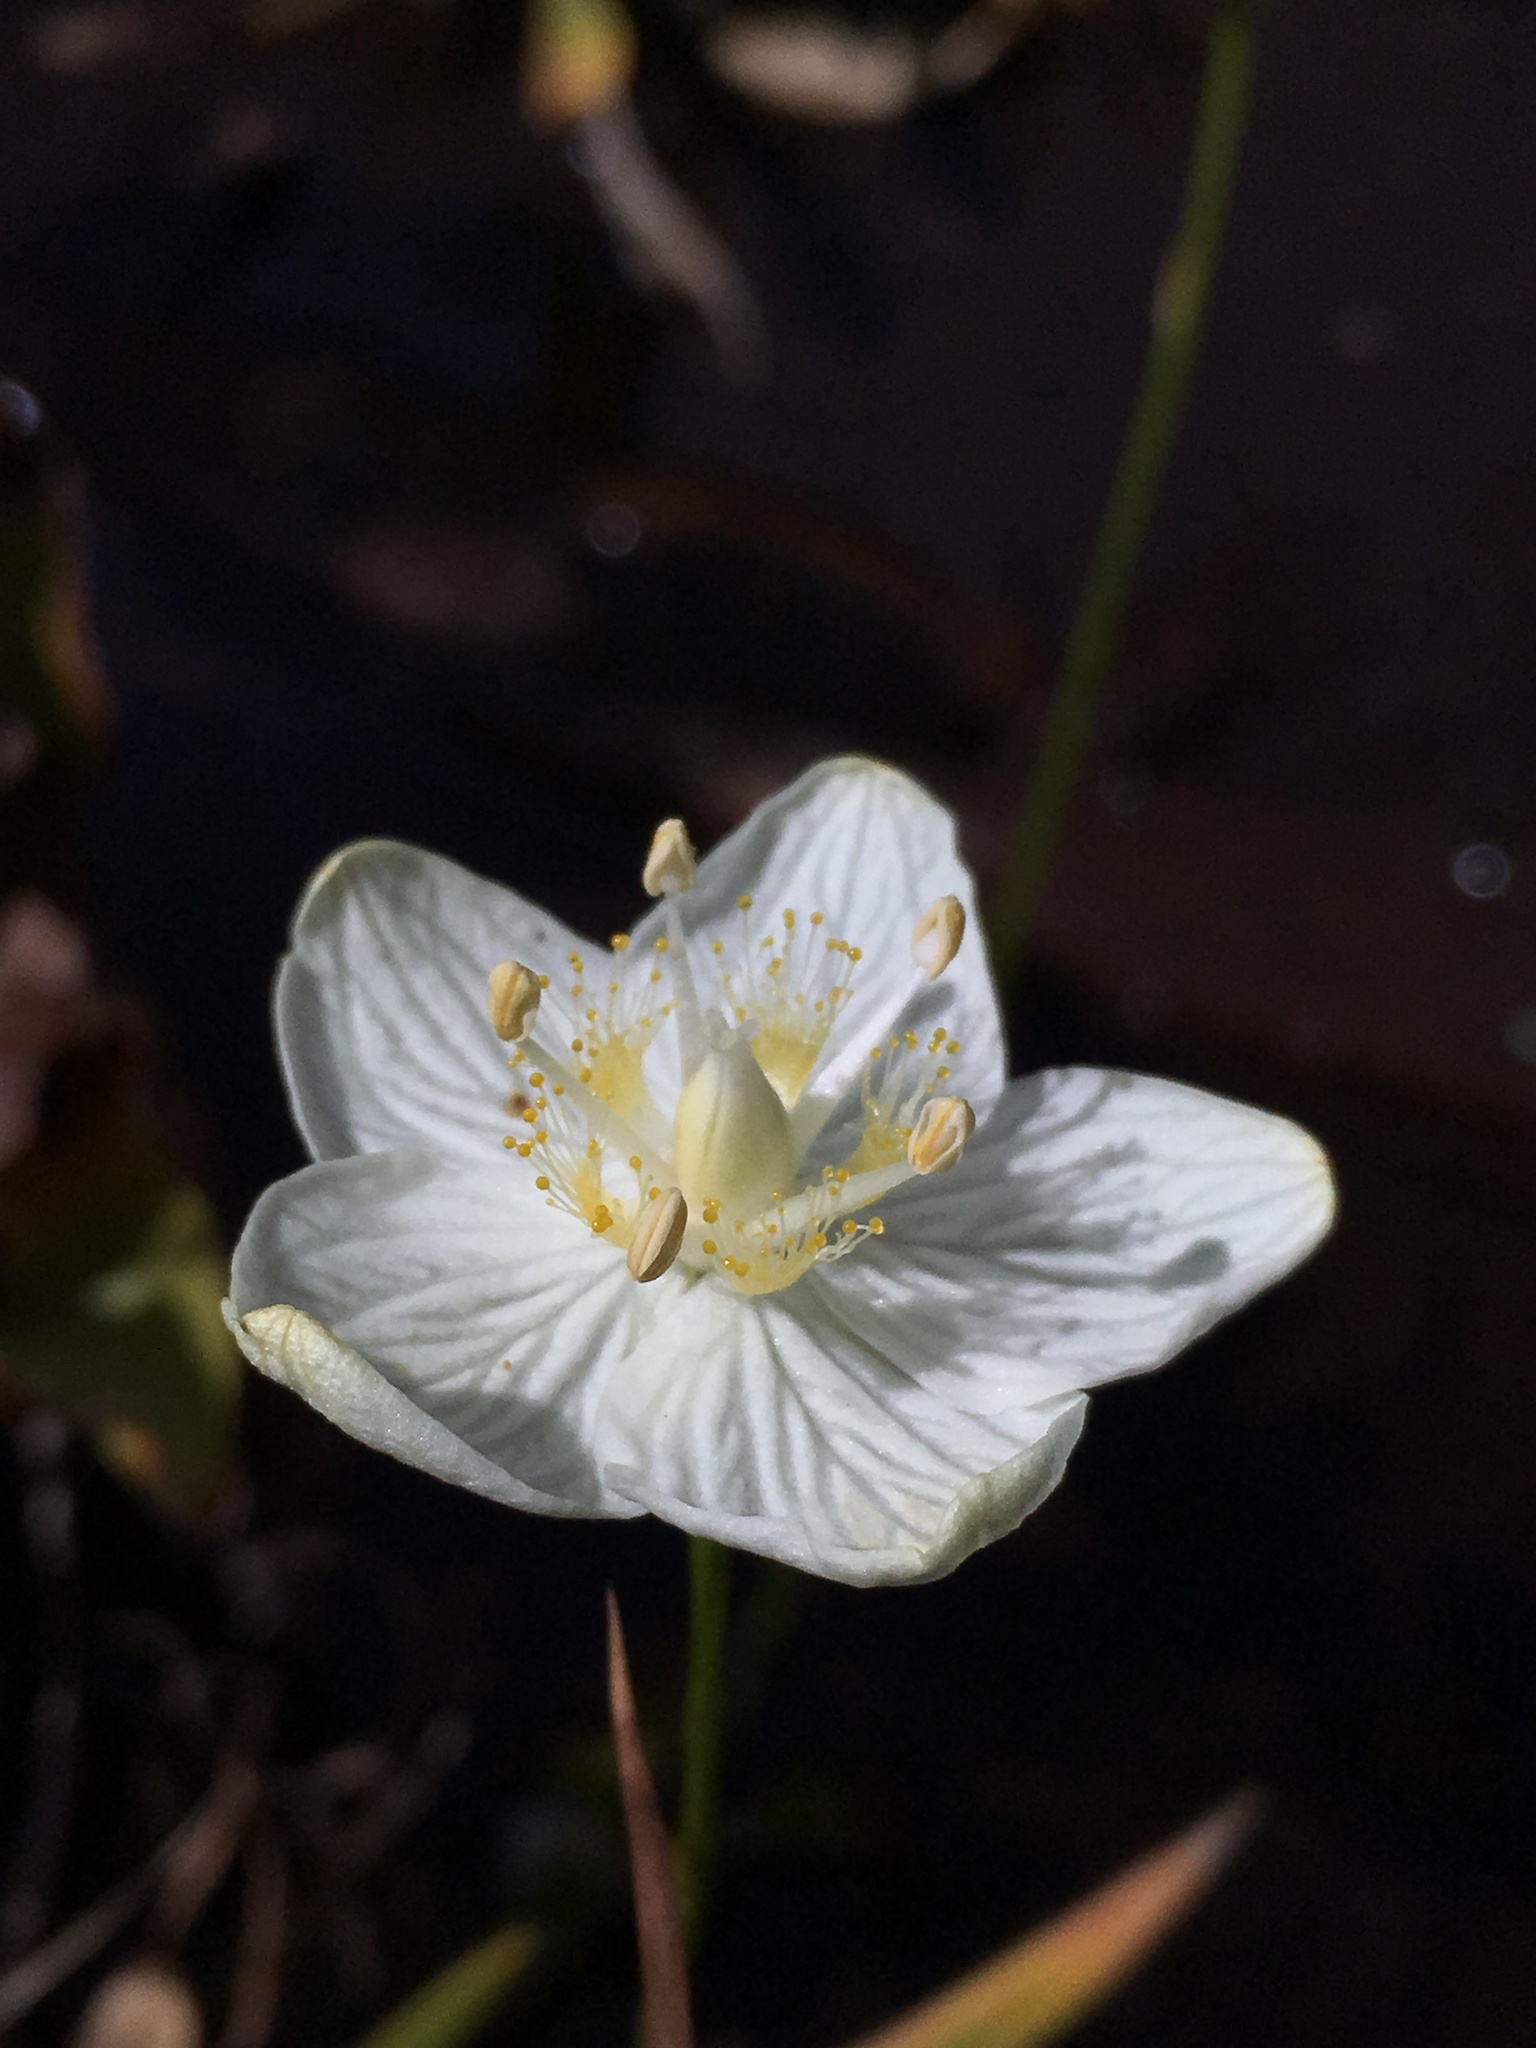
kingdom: Plantae
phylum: Tracheophyta
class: Magnoliopsida
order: Celastrales
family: Parnassiaceae
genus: Parnassia
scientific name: Parnassia palustris
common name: Grass-of-parnassus
